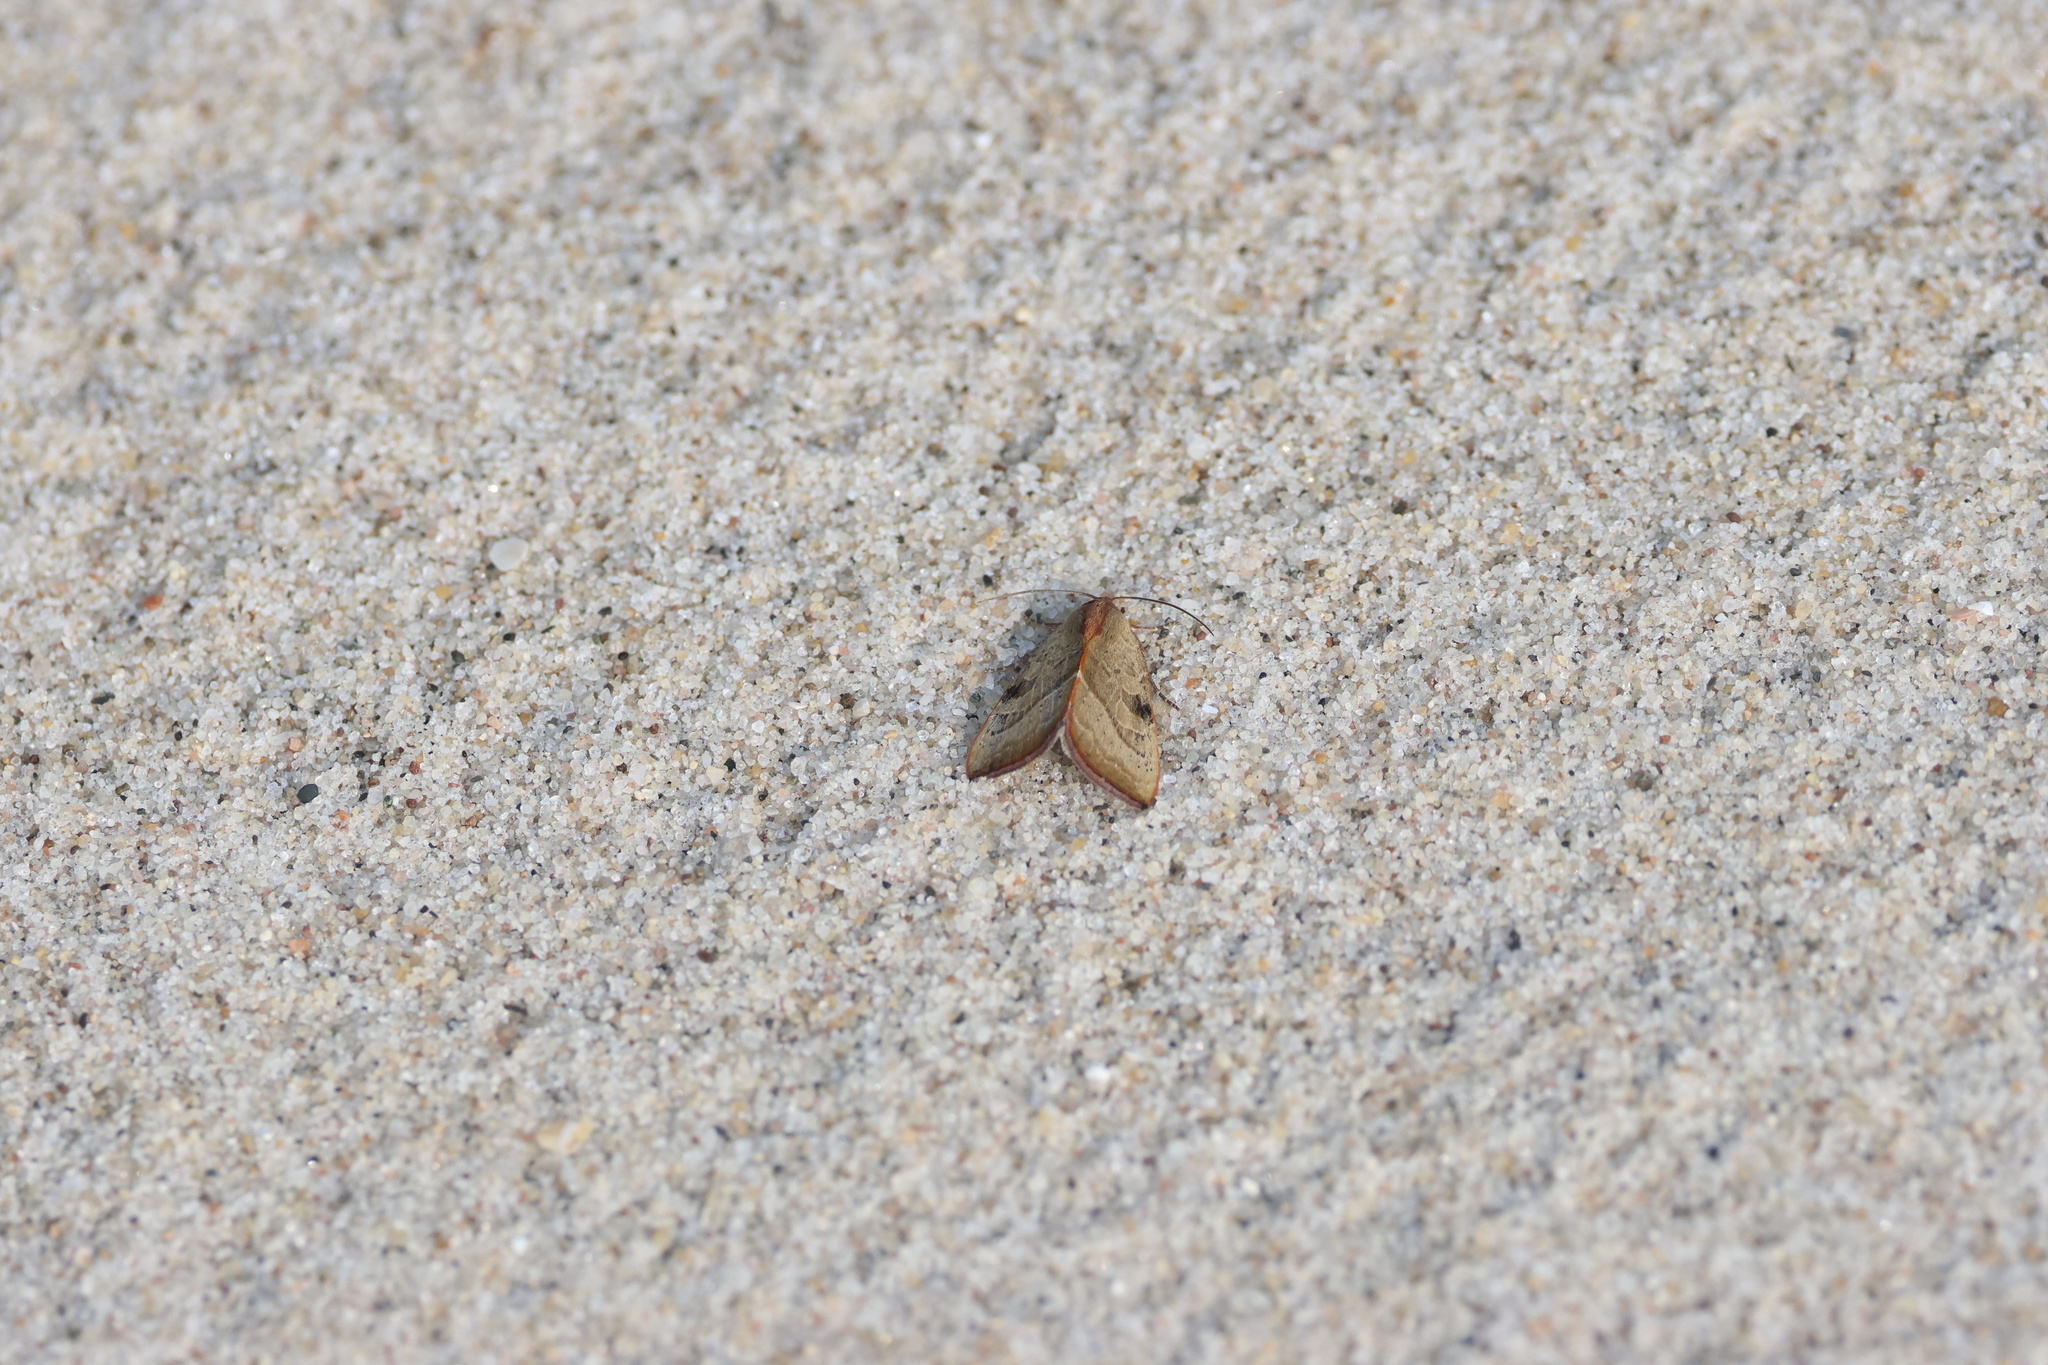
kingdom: Animalia
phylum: Arthropoda
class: Insecta
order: Lepidoptera
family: Noctuidae
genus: Galgula
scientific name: Galgula partita
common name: Wedgeling
